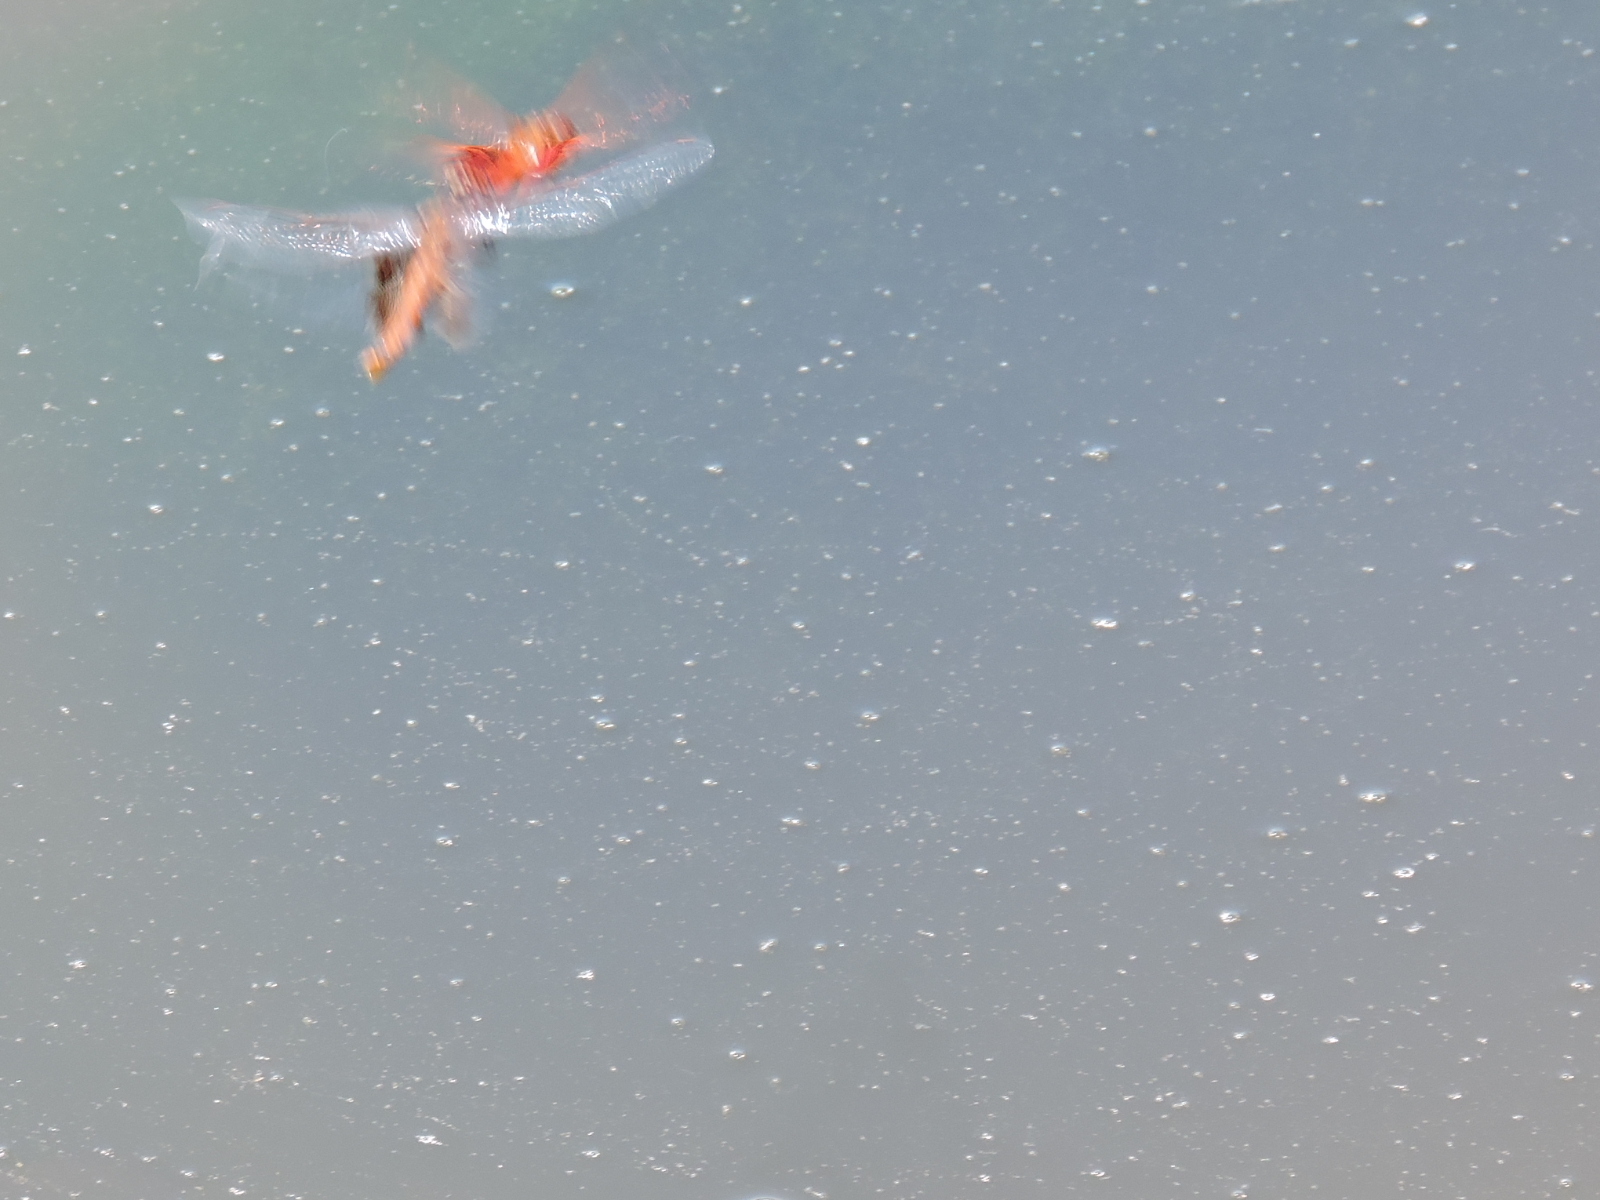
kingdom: Animalia
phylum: Arthropoda
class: Insecta
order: Odonata
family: Libellulidae
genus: Tramea
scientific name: Tramea onusta
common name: Red saddlebags
